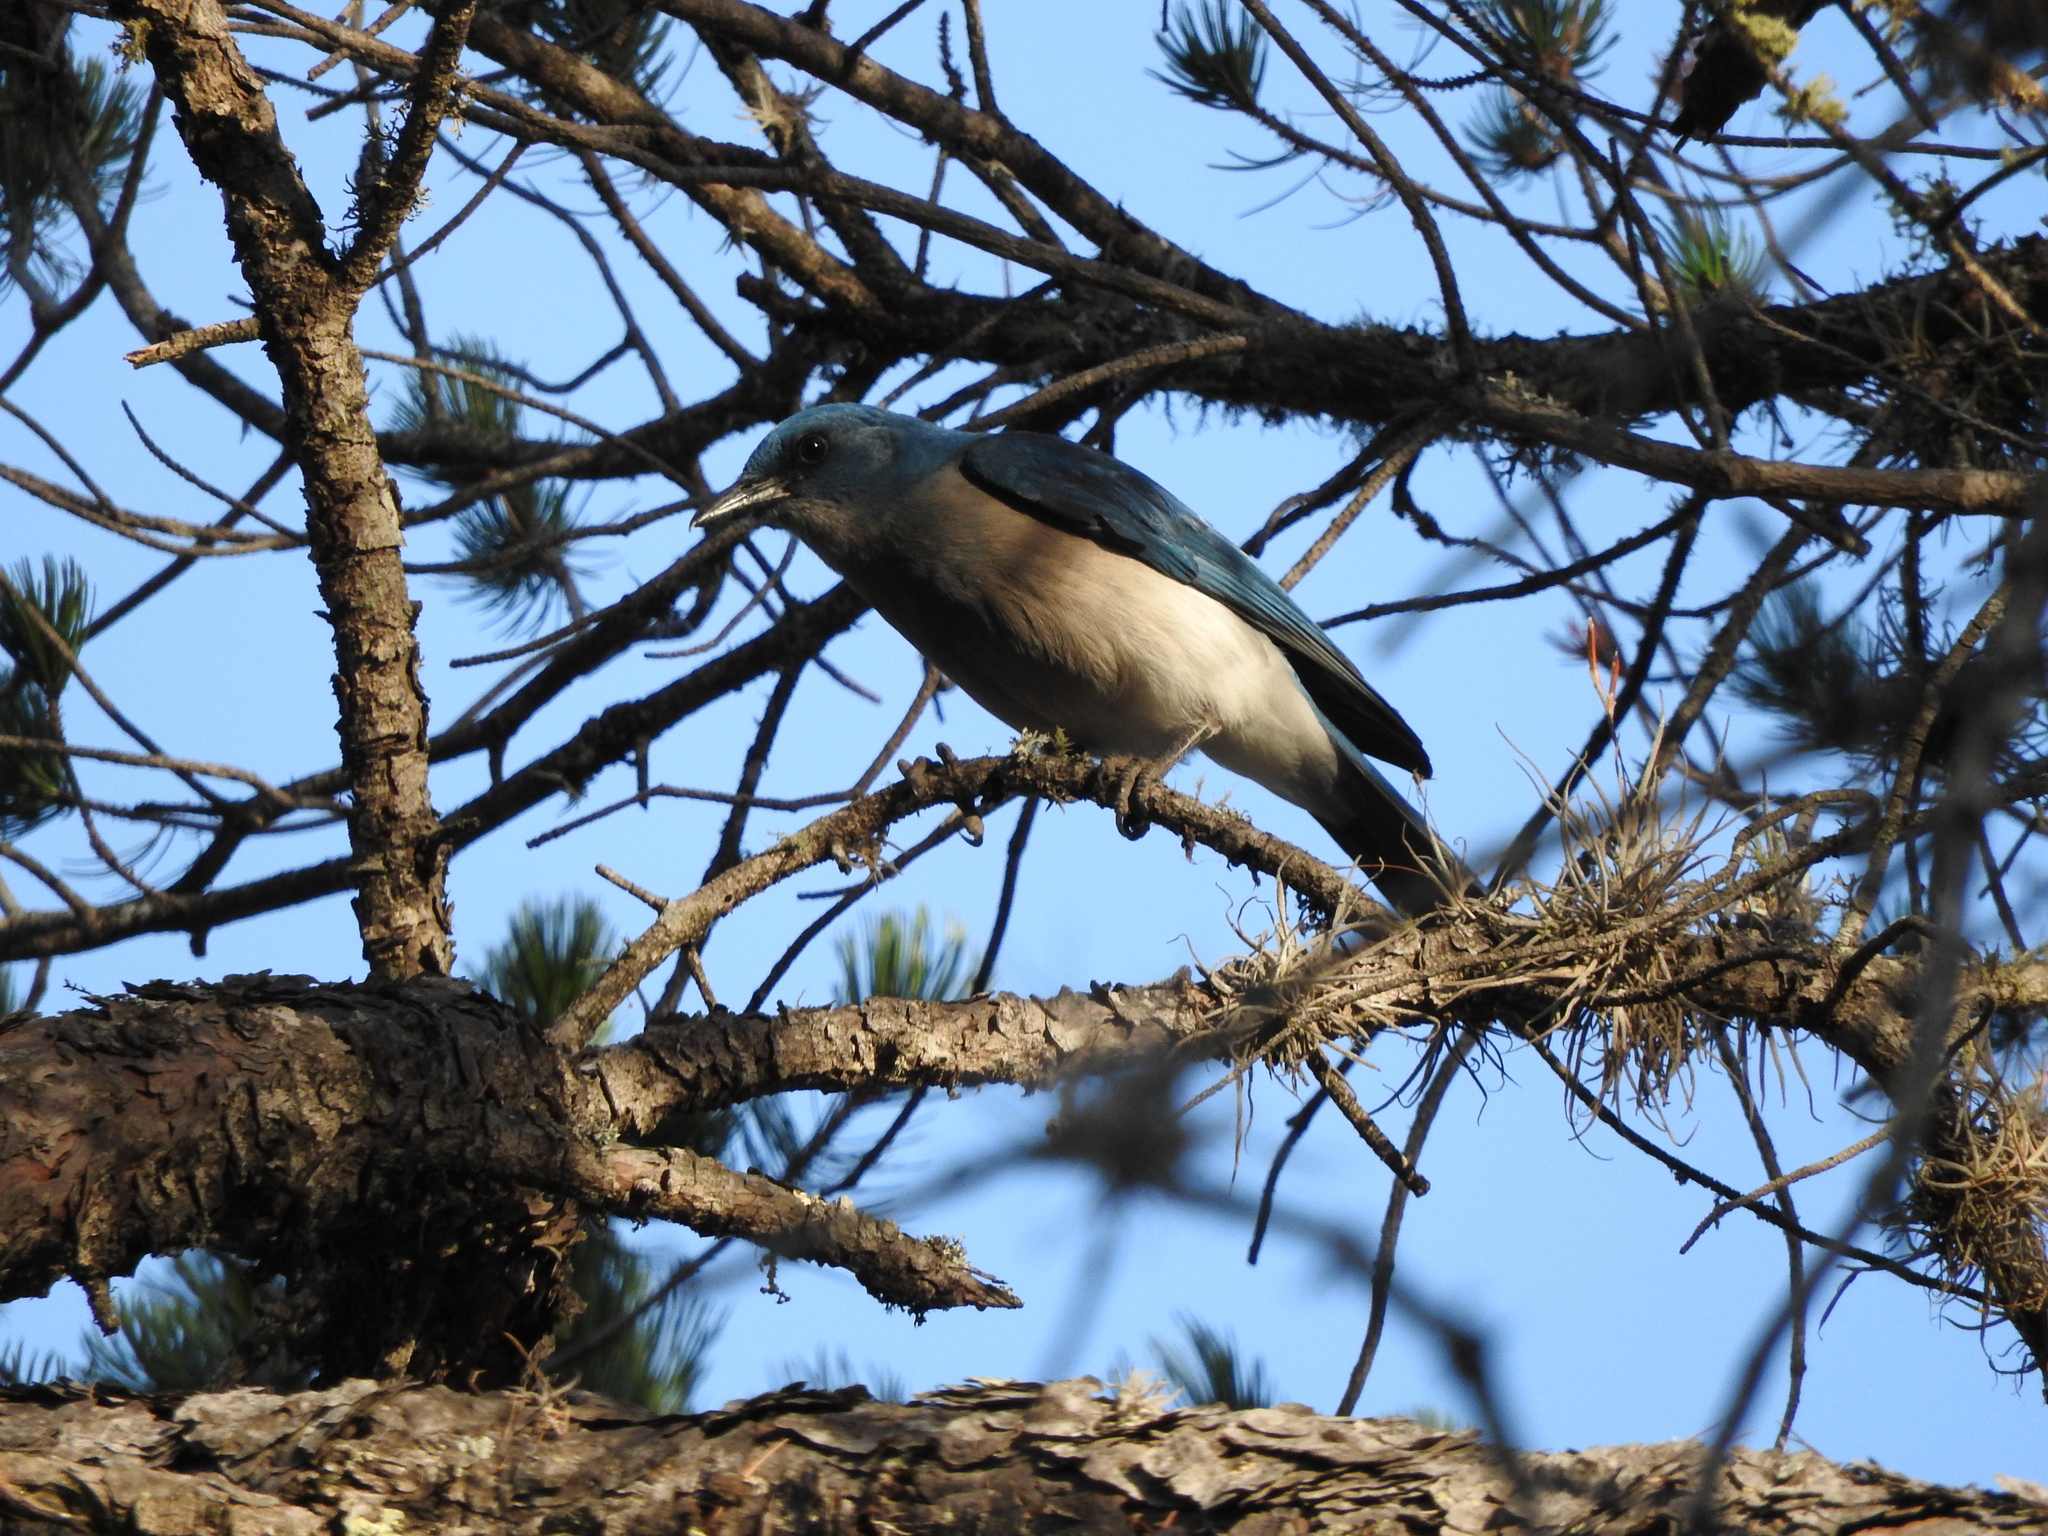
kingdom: Animalia
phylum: Chordata
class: Aves
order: Passeriformes
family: Corvidae
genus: Aphelocoma
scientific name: Aphelocoma wollweberi
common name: Mexican jay
